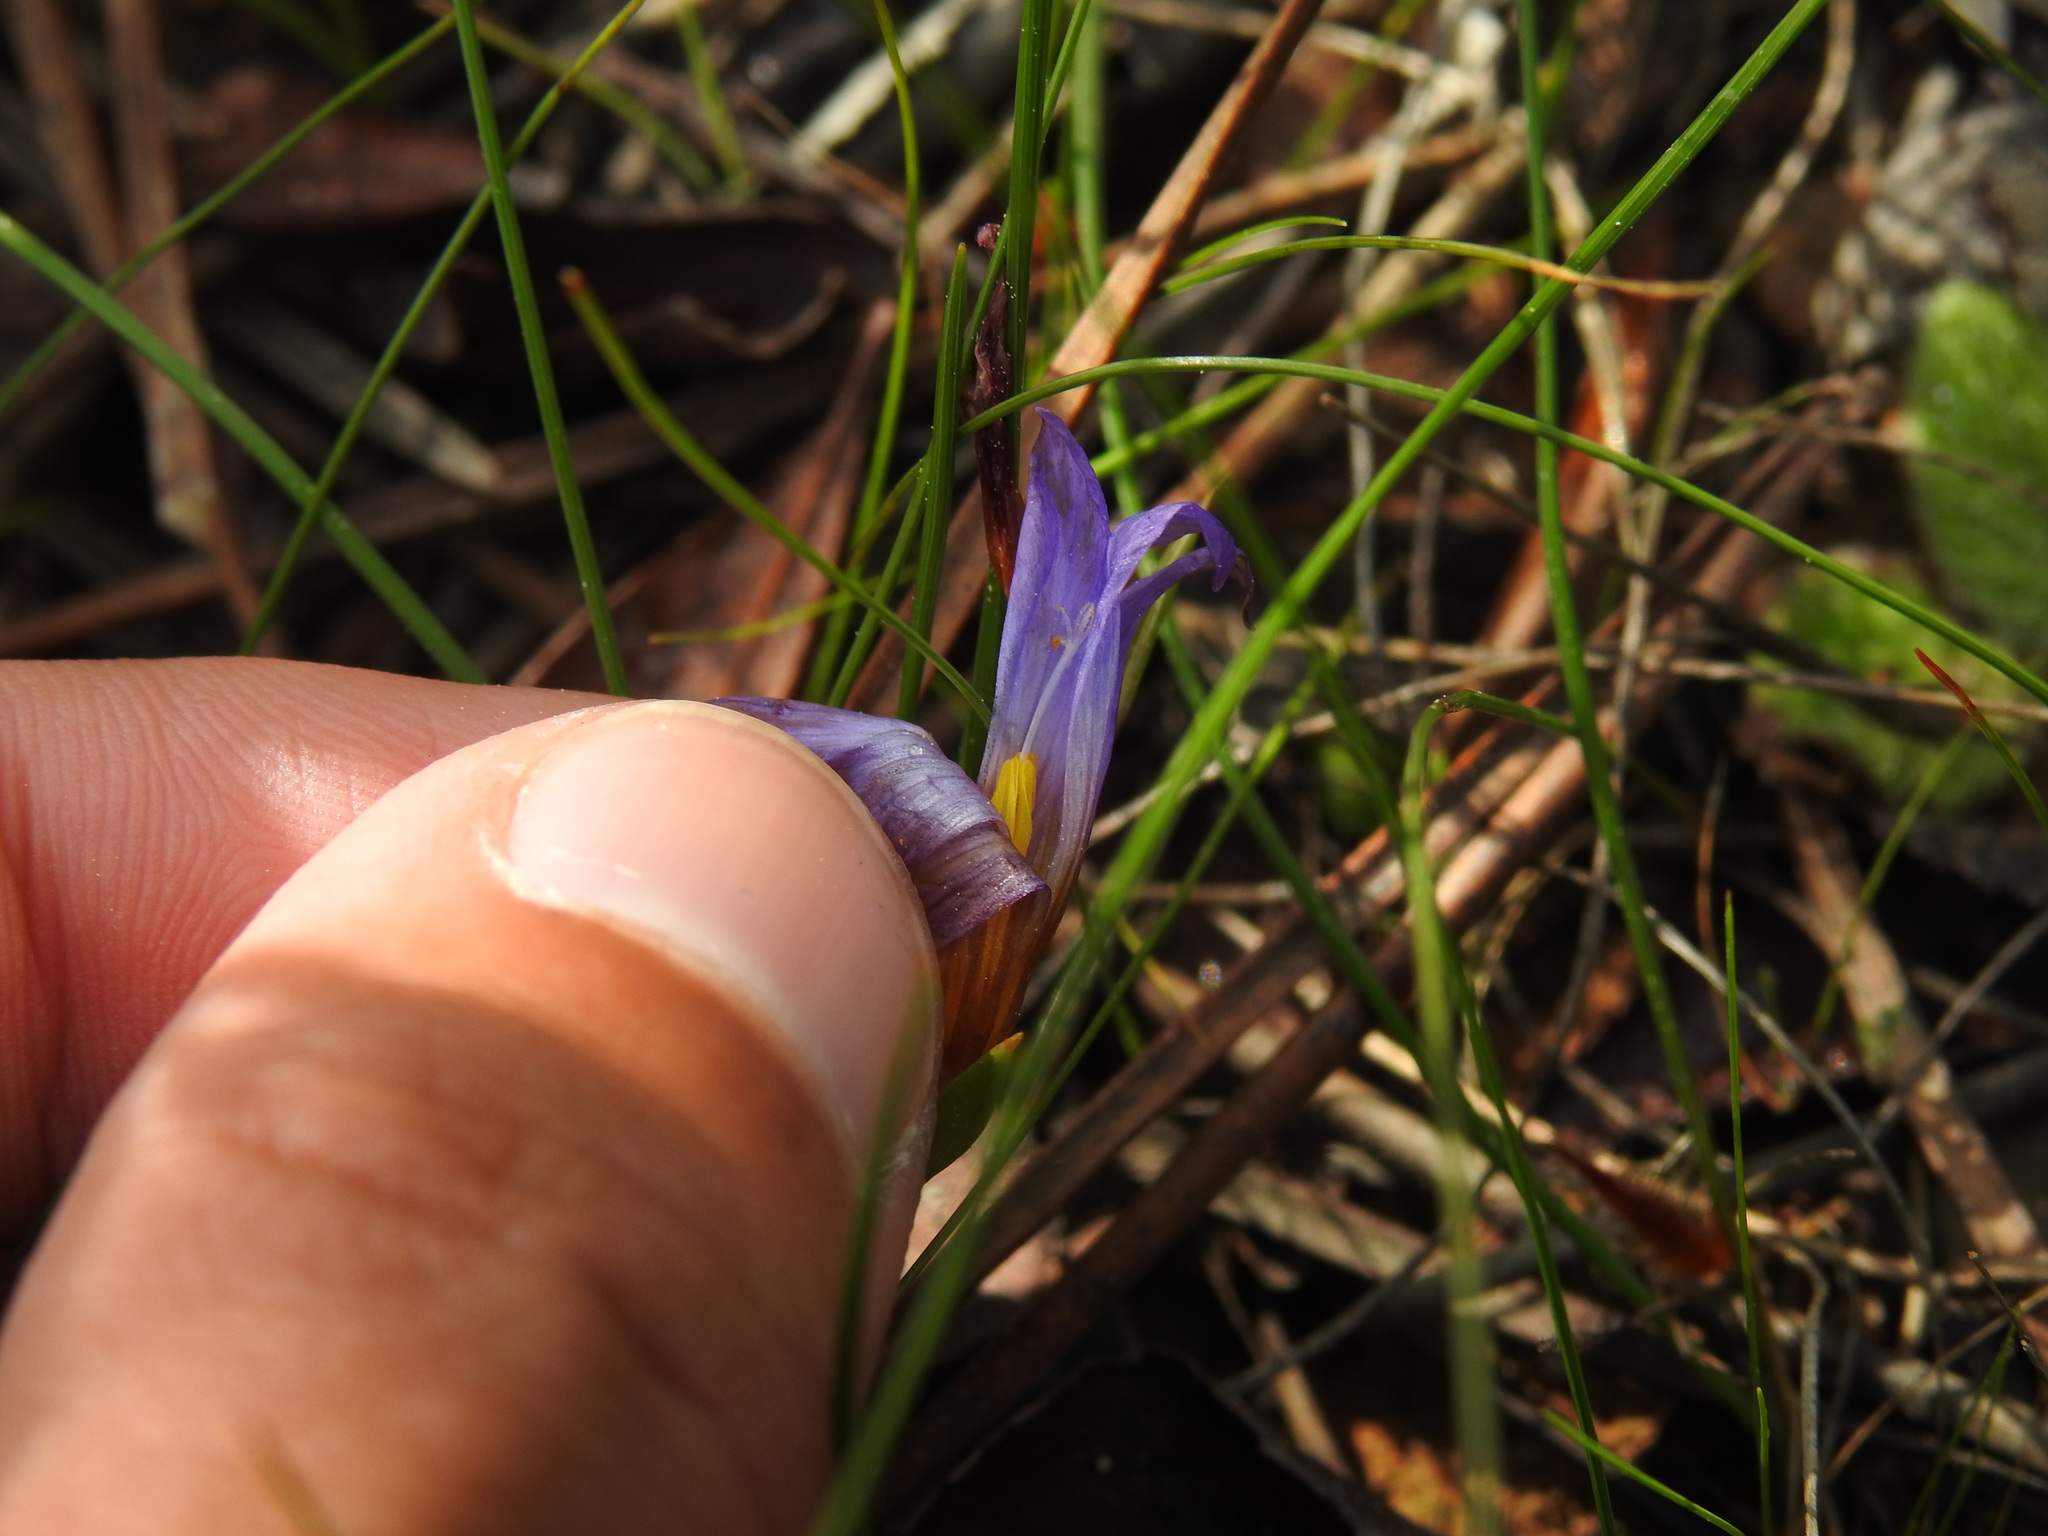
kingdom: Plantae
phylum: Tracheophyta
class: Liliopsida
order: Asparagales
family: Iridaceae
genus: Romulea
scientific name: Romulea bulbocodium
